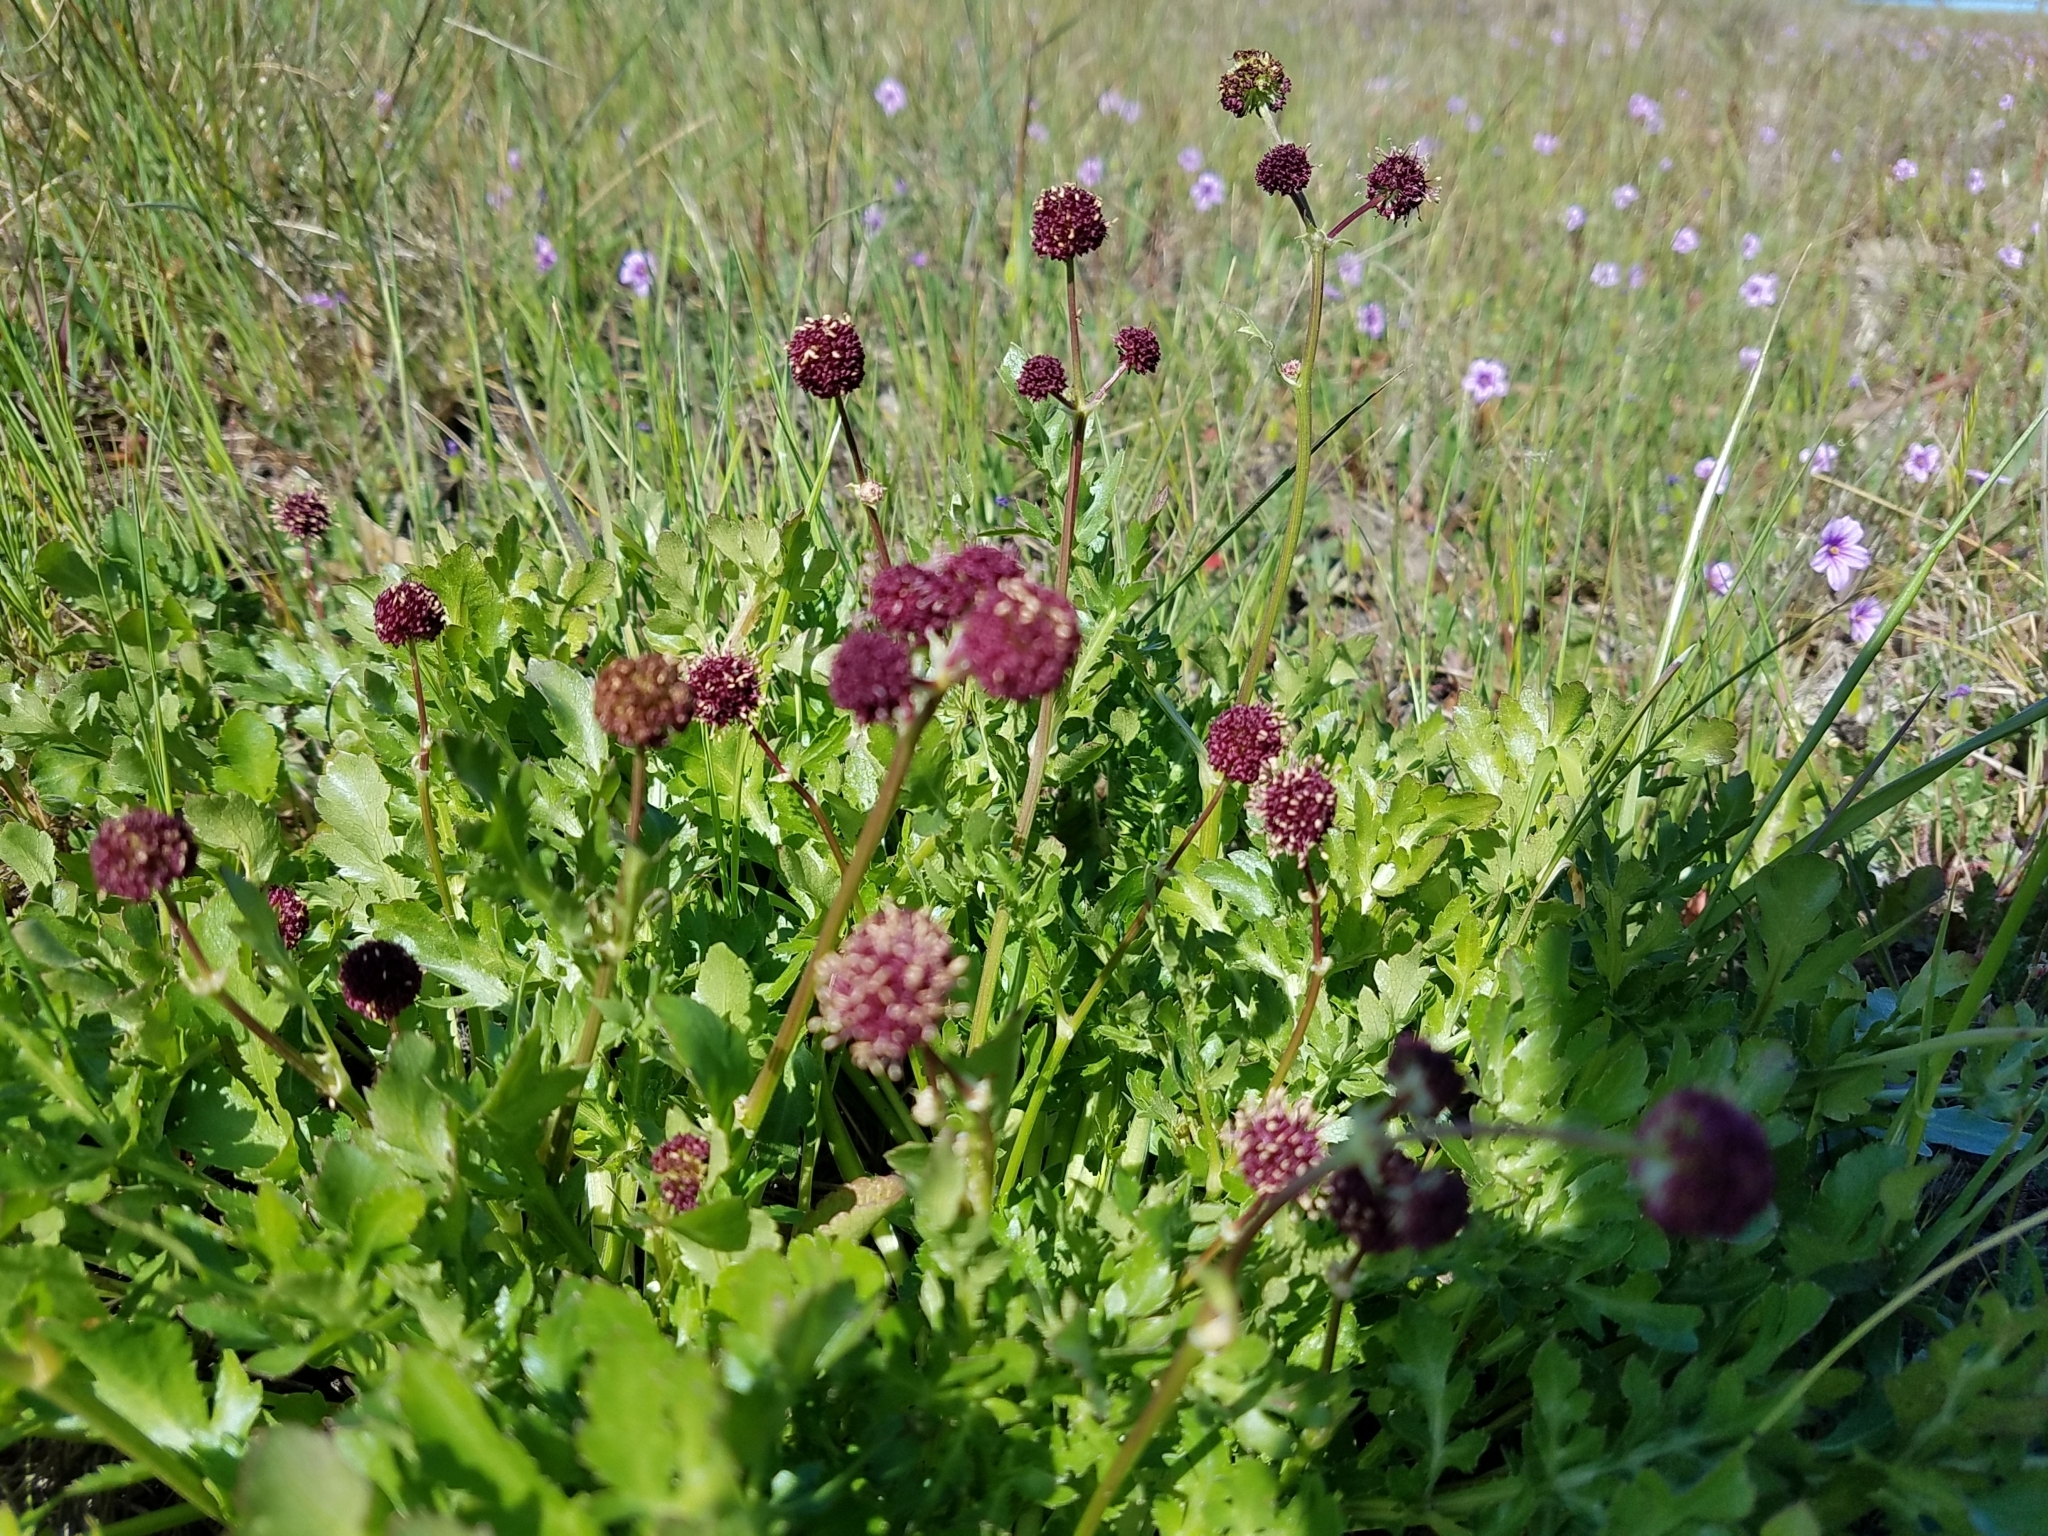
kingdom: Plantae
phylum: Tracheophyta
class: Magnoliopsida
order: Apiales
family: Apiaceae
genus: Sanicula
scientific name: Sanicula bipinnatifida
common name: Shoe-buttons
